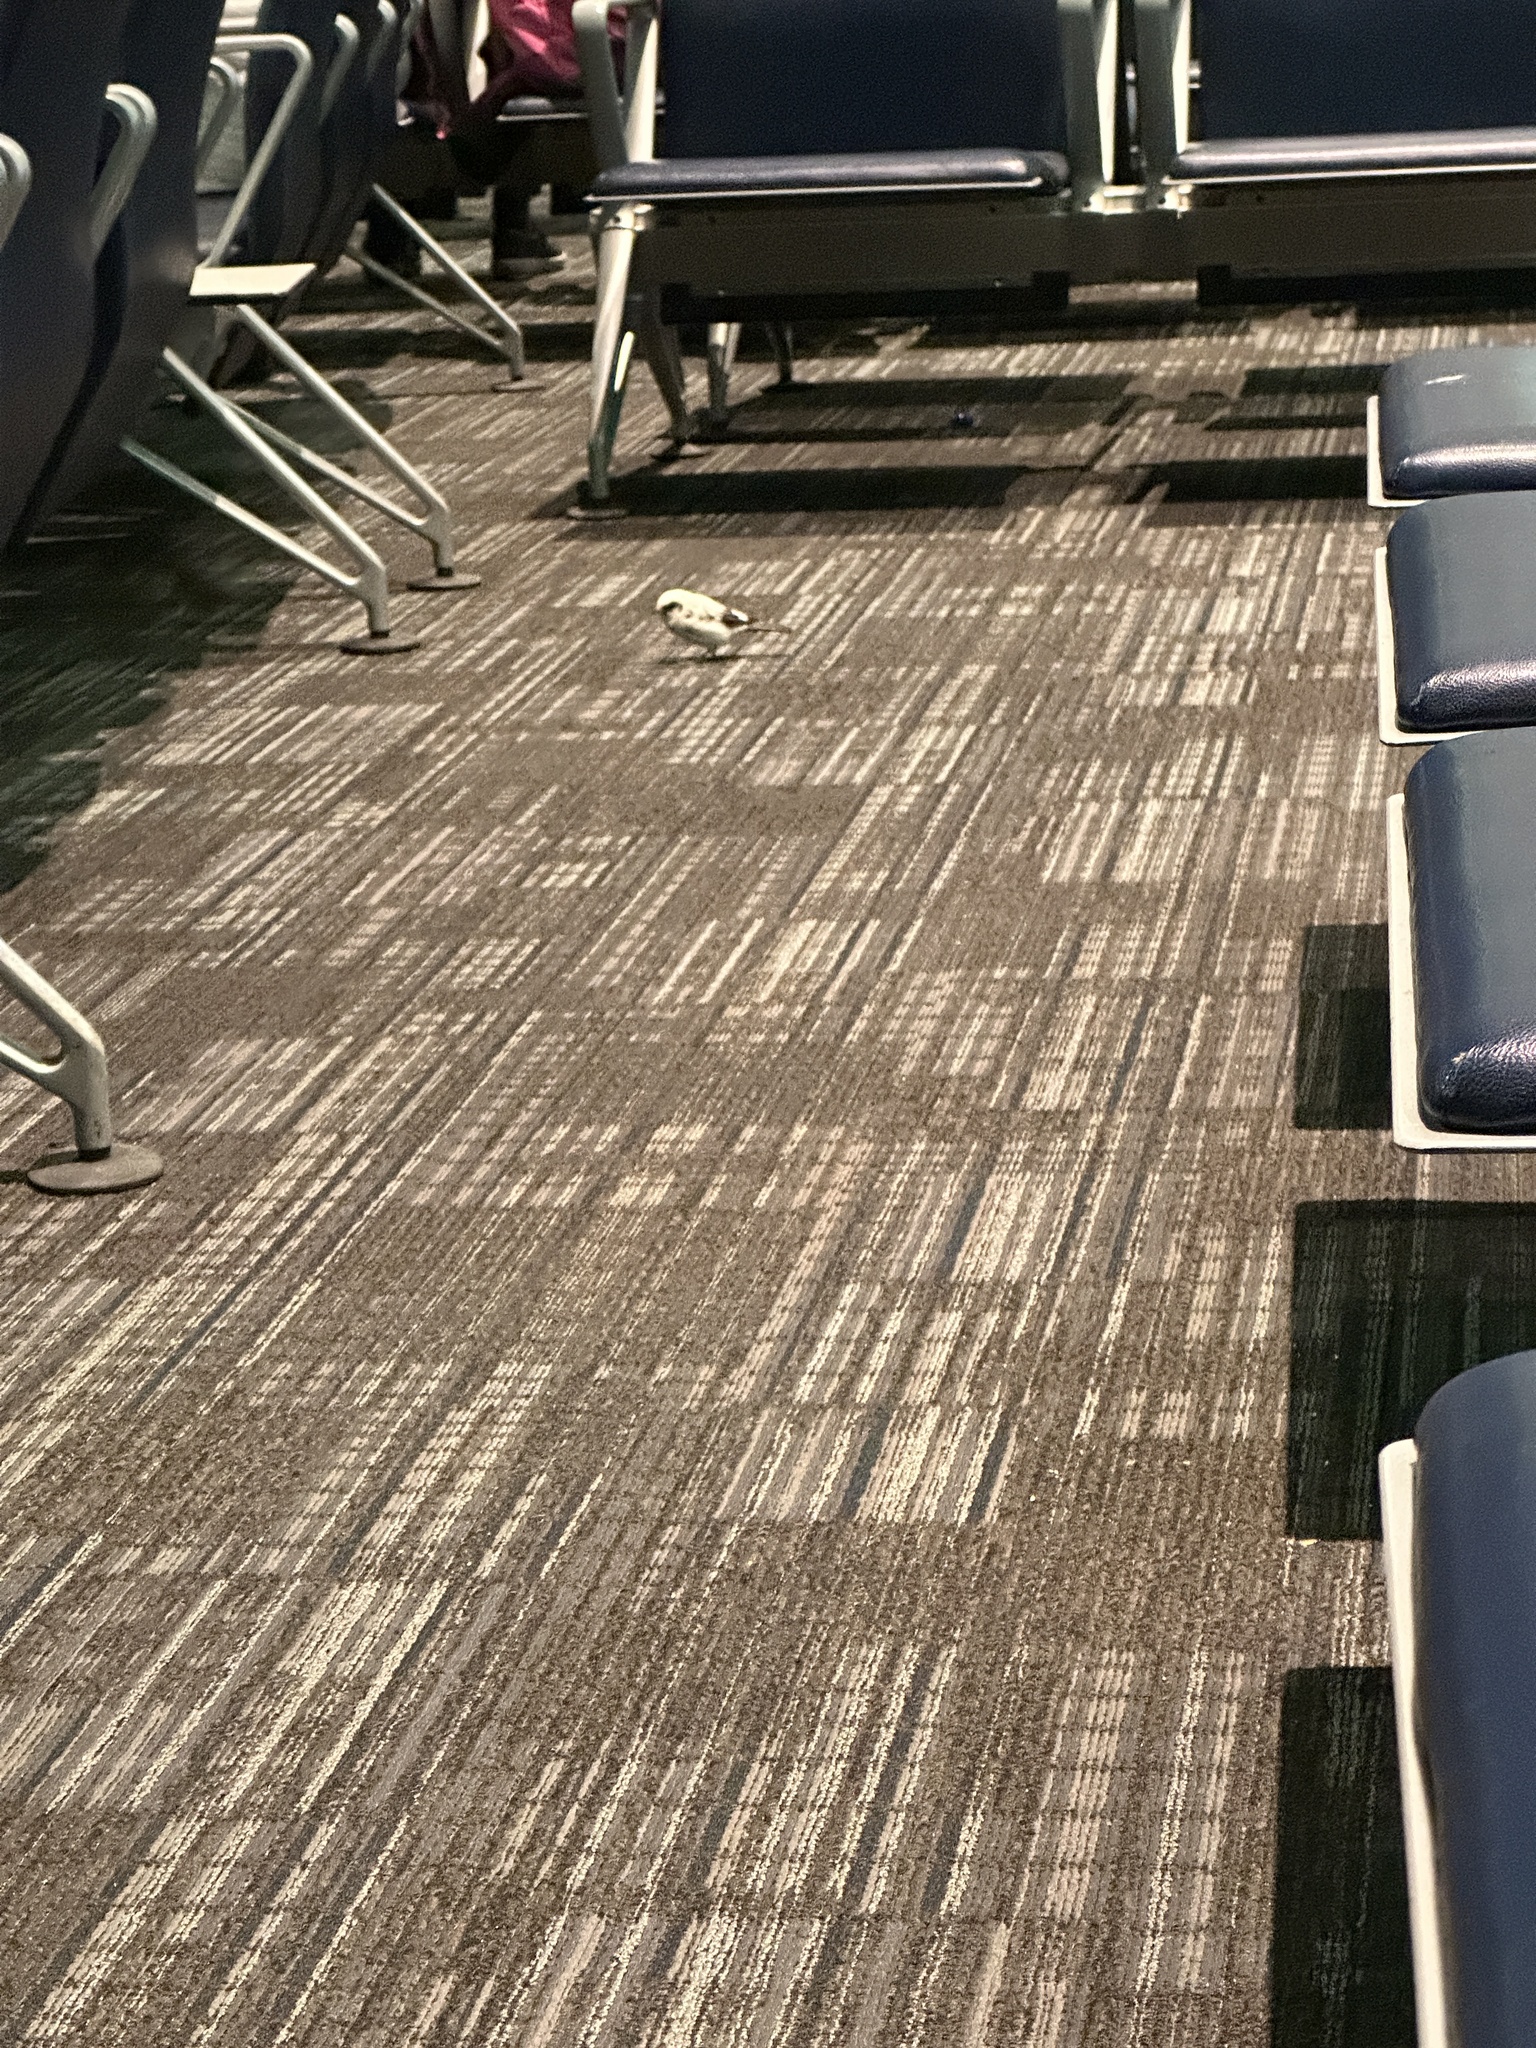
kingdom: Animalia
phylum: Chordata
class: Aves
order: Passeriformes
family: Passeridae
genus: Passer
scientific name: Passer domesticus
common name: House sparrow
